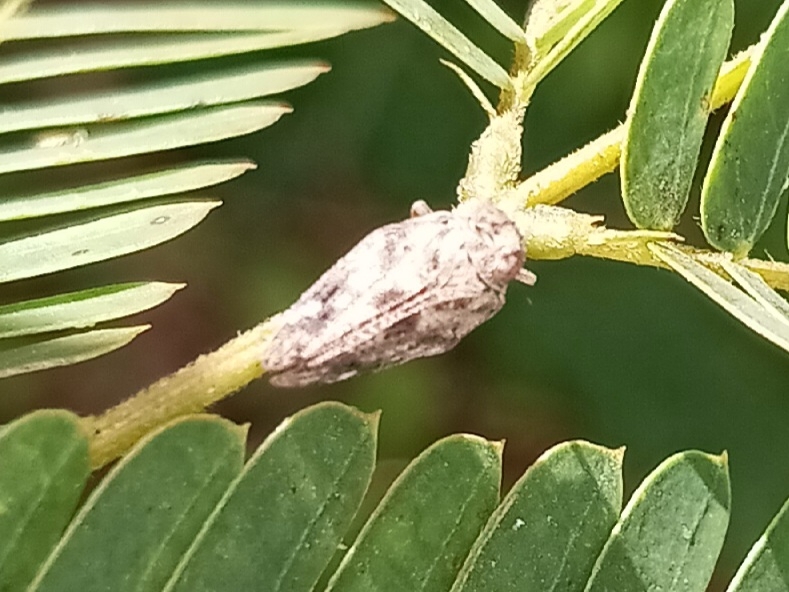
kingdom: Animalia
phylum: Arthropoda
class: Insecta
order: Hemiptera
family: Issidae
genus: Thionia
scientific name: Thionia bullata
